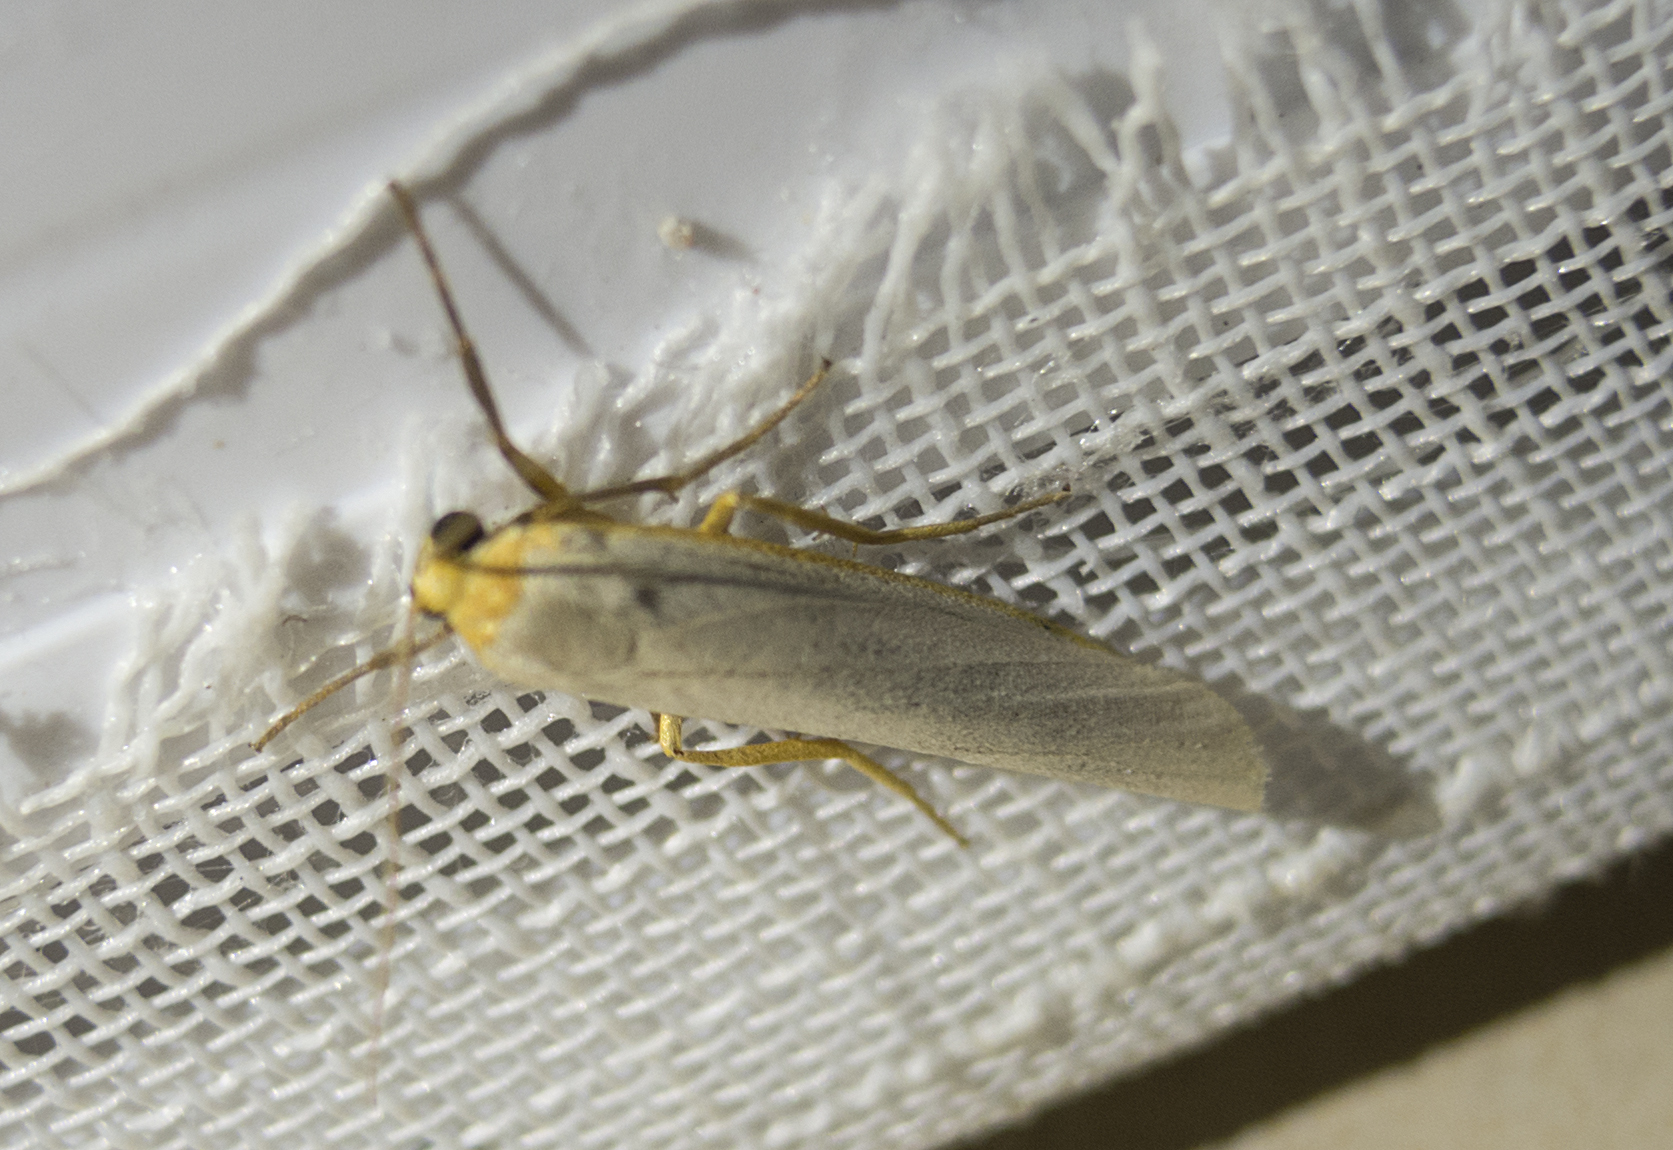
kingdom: Animalia
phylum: Arthropoda
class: Insecta
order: Lepidoptera
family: Erebidae
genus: Eilema
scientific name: Eilema caniola
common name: Hoary footman
